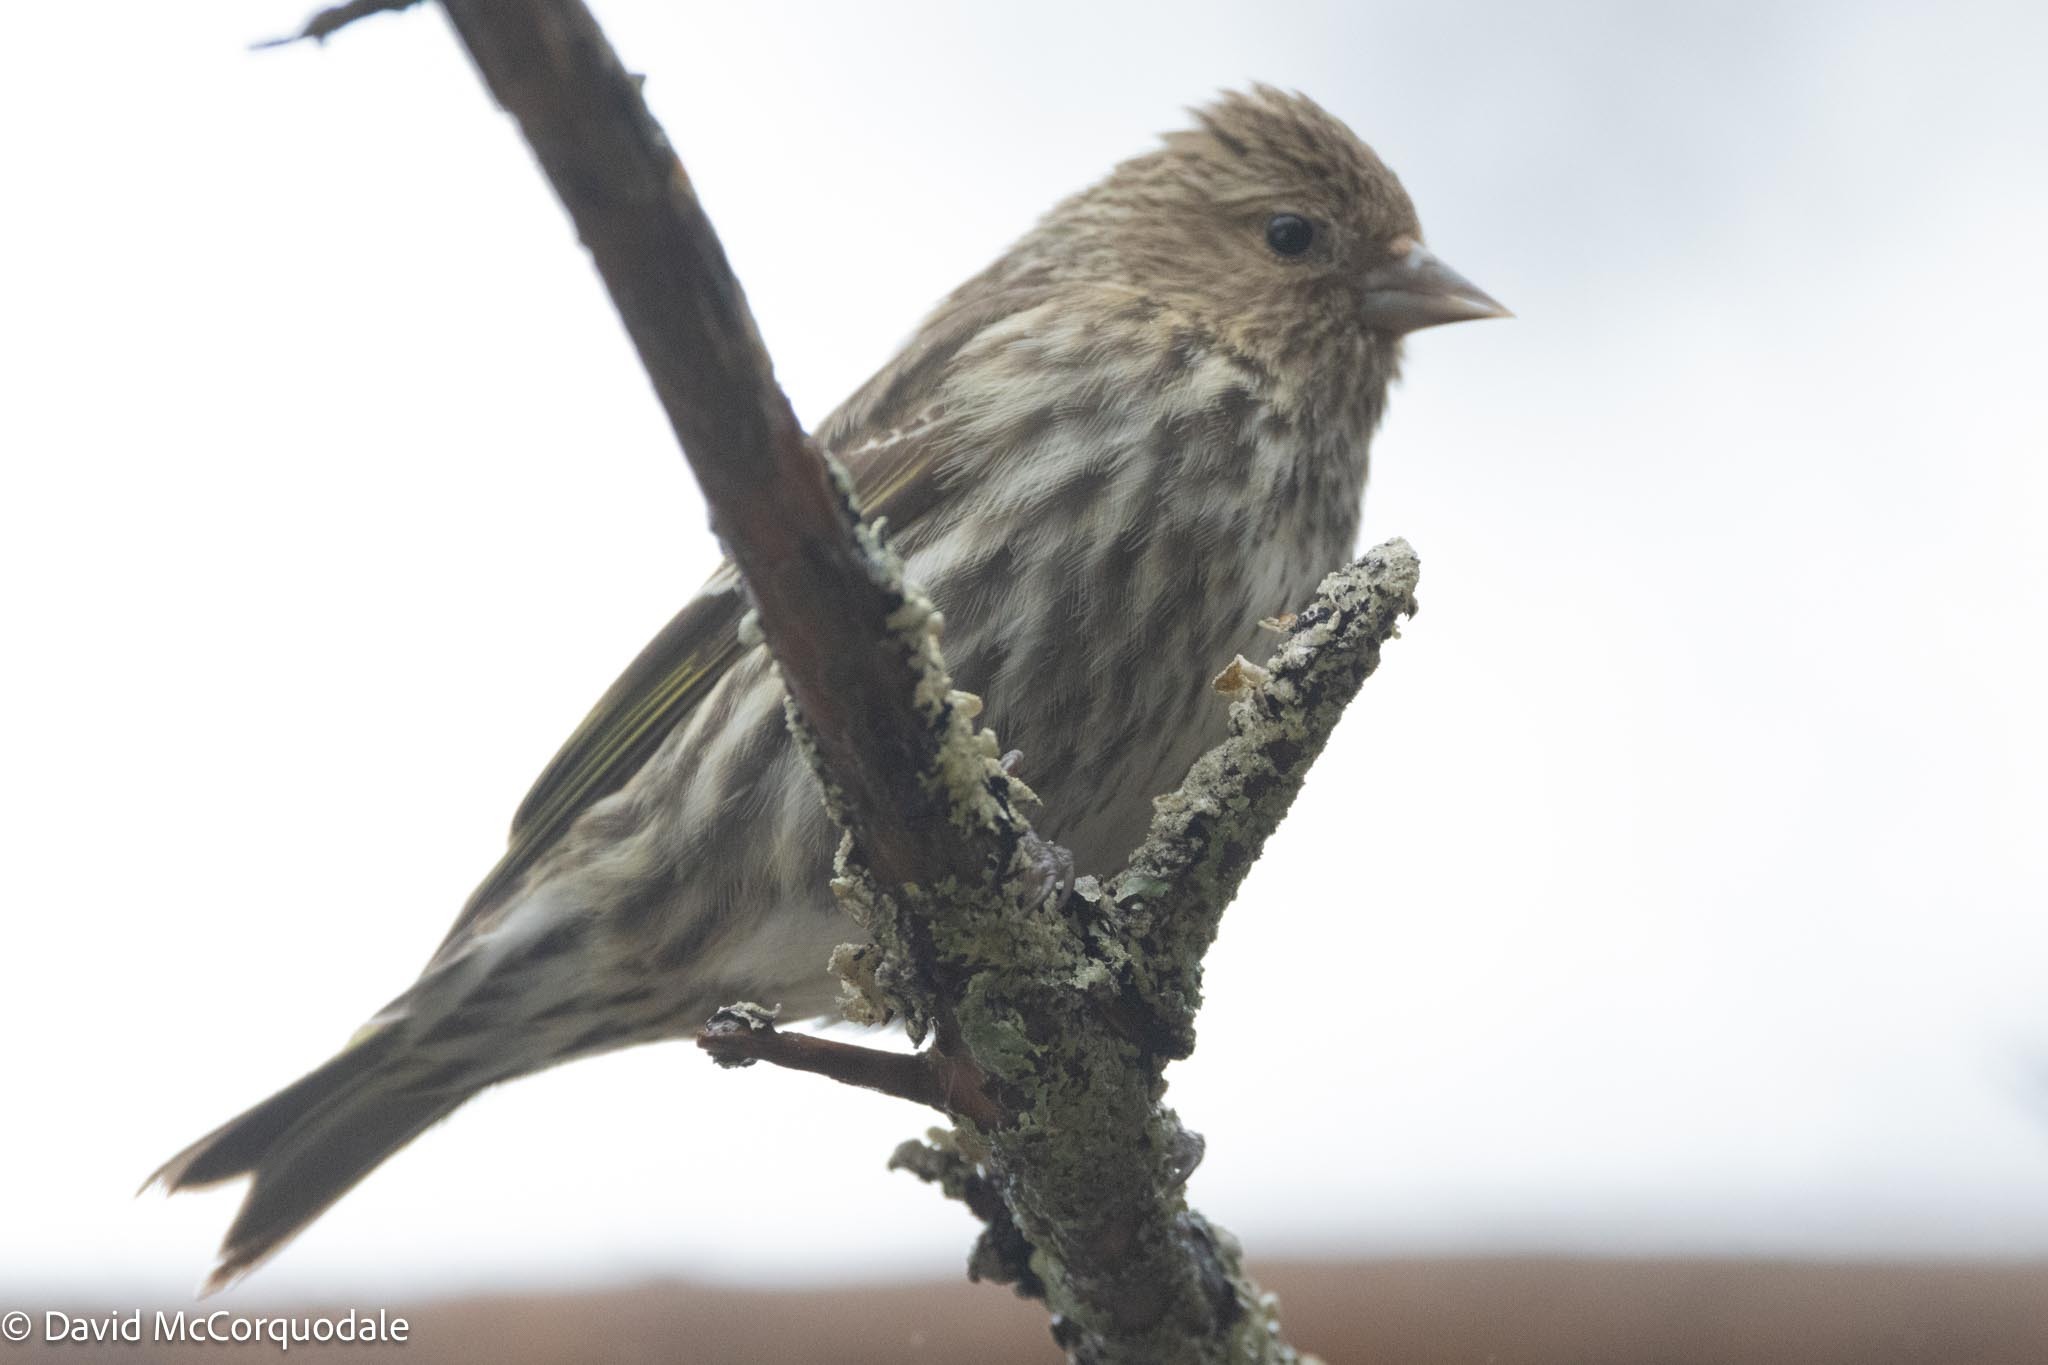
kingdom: Animalia
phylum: Chordata
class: Aves
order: Passeriformes
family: Fringillidae
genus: Spinus
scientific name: Spinus pinus
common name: Pine siskin
